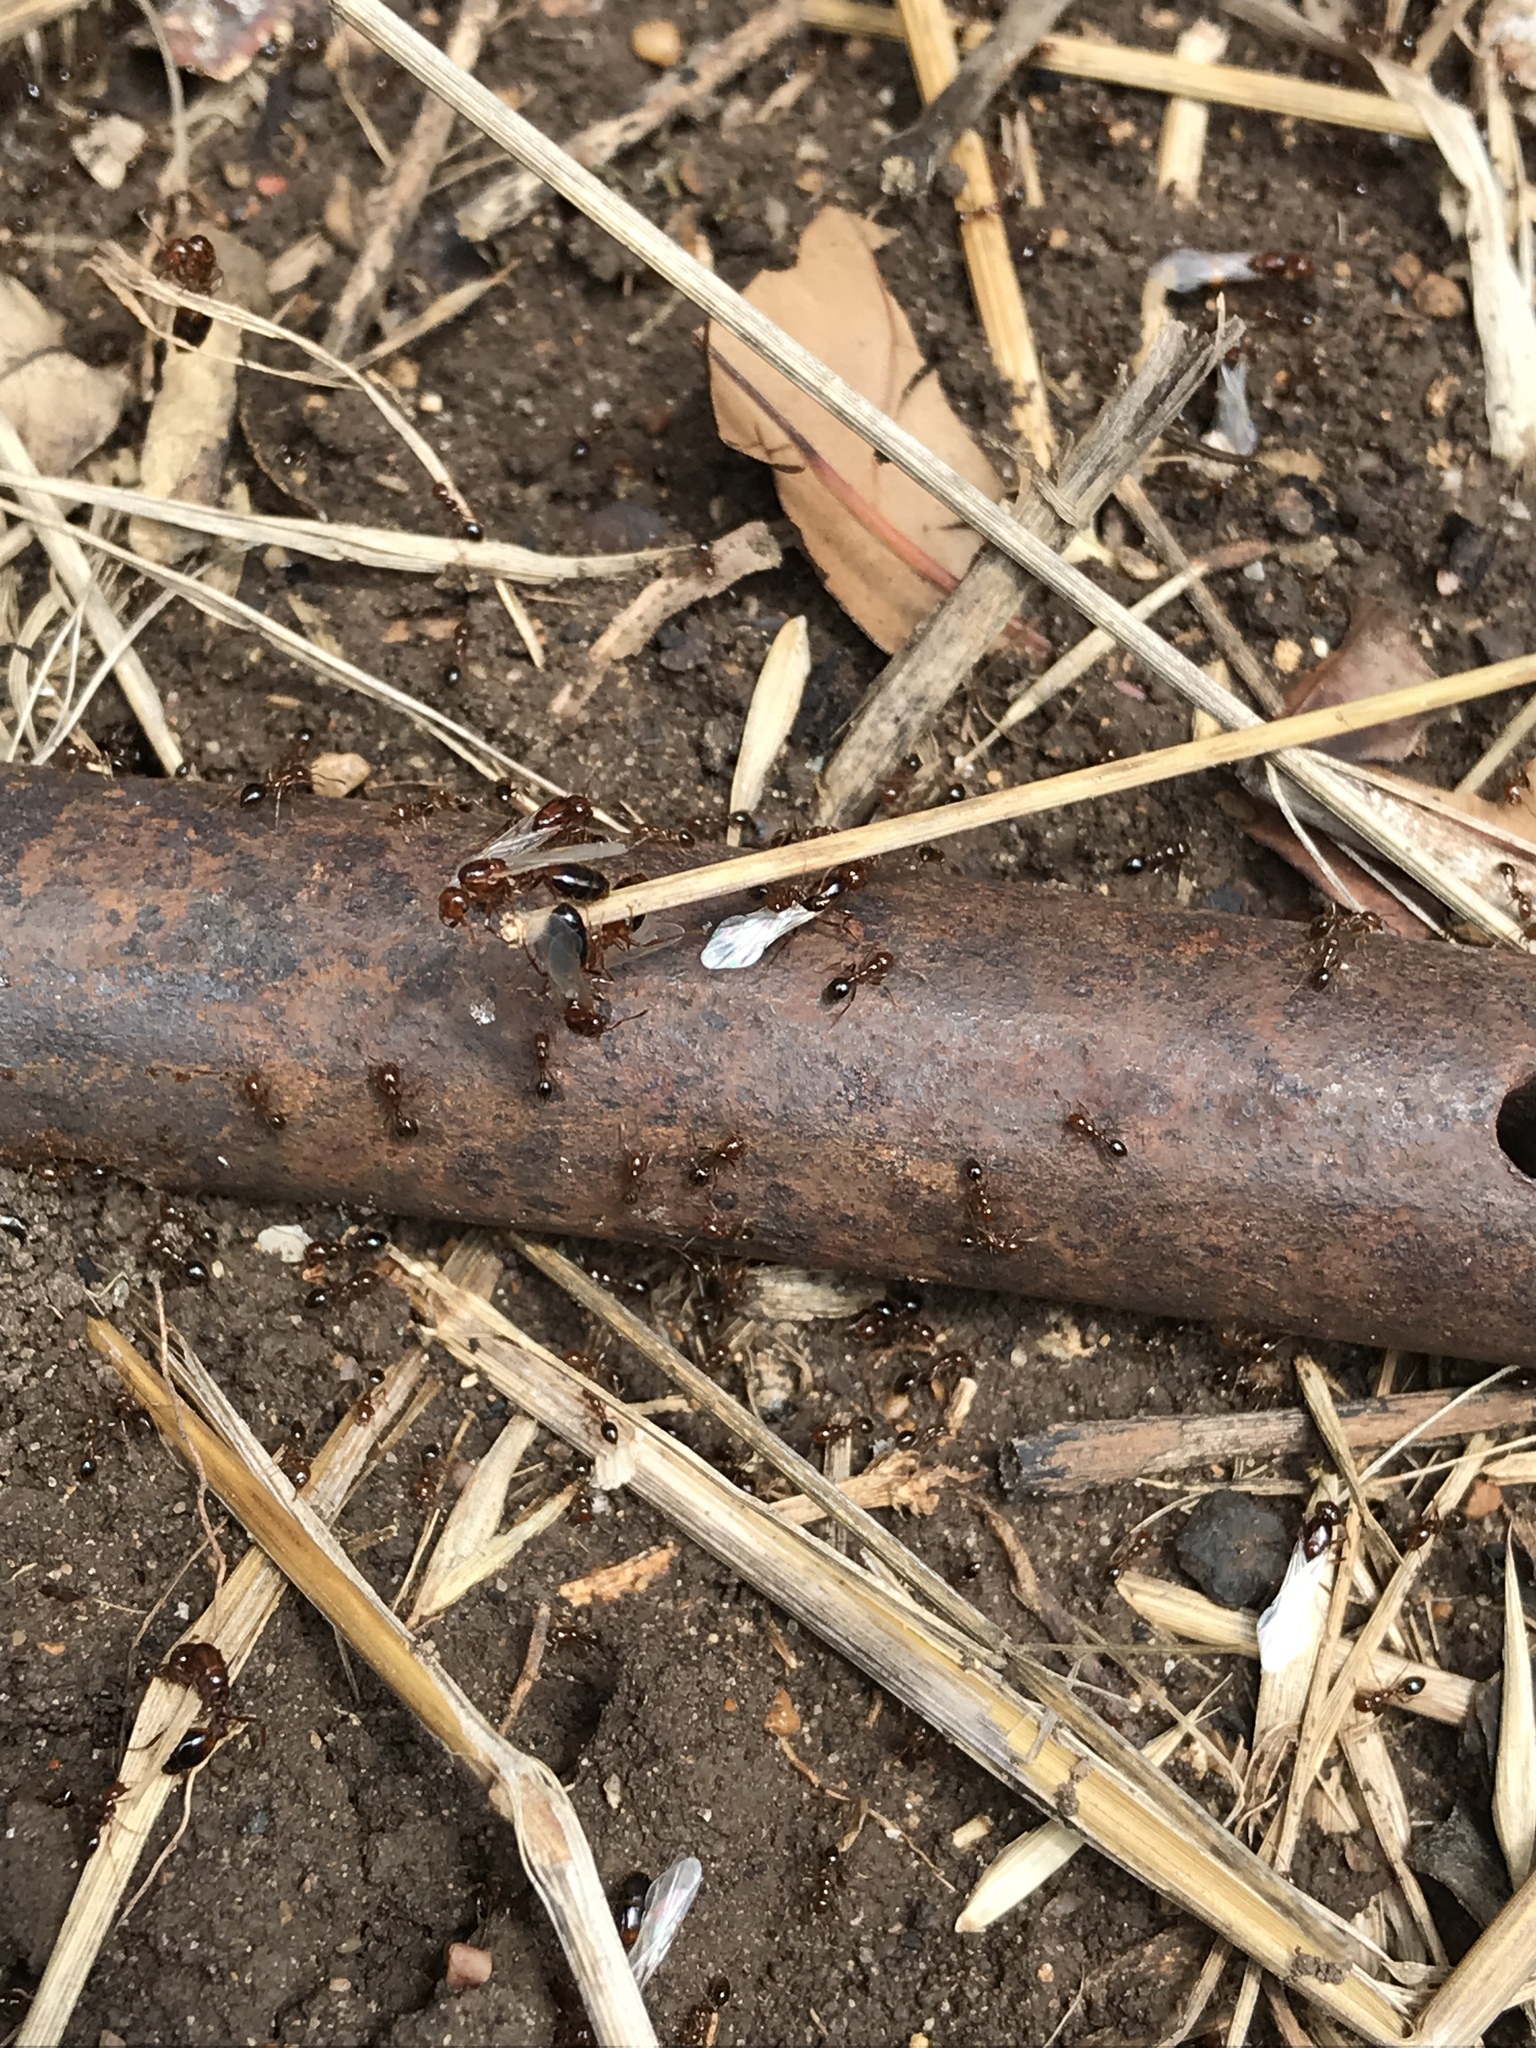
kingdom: Animalia
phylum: Arthropoda
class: Insecta
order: Hymenoptera
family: Formicidae
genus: Solenopsis
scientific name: Solenopsis invicta
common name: Red imported fire ant
